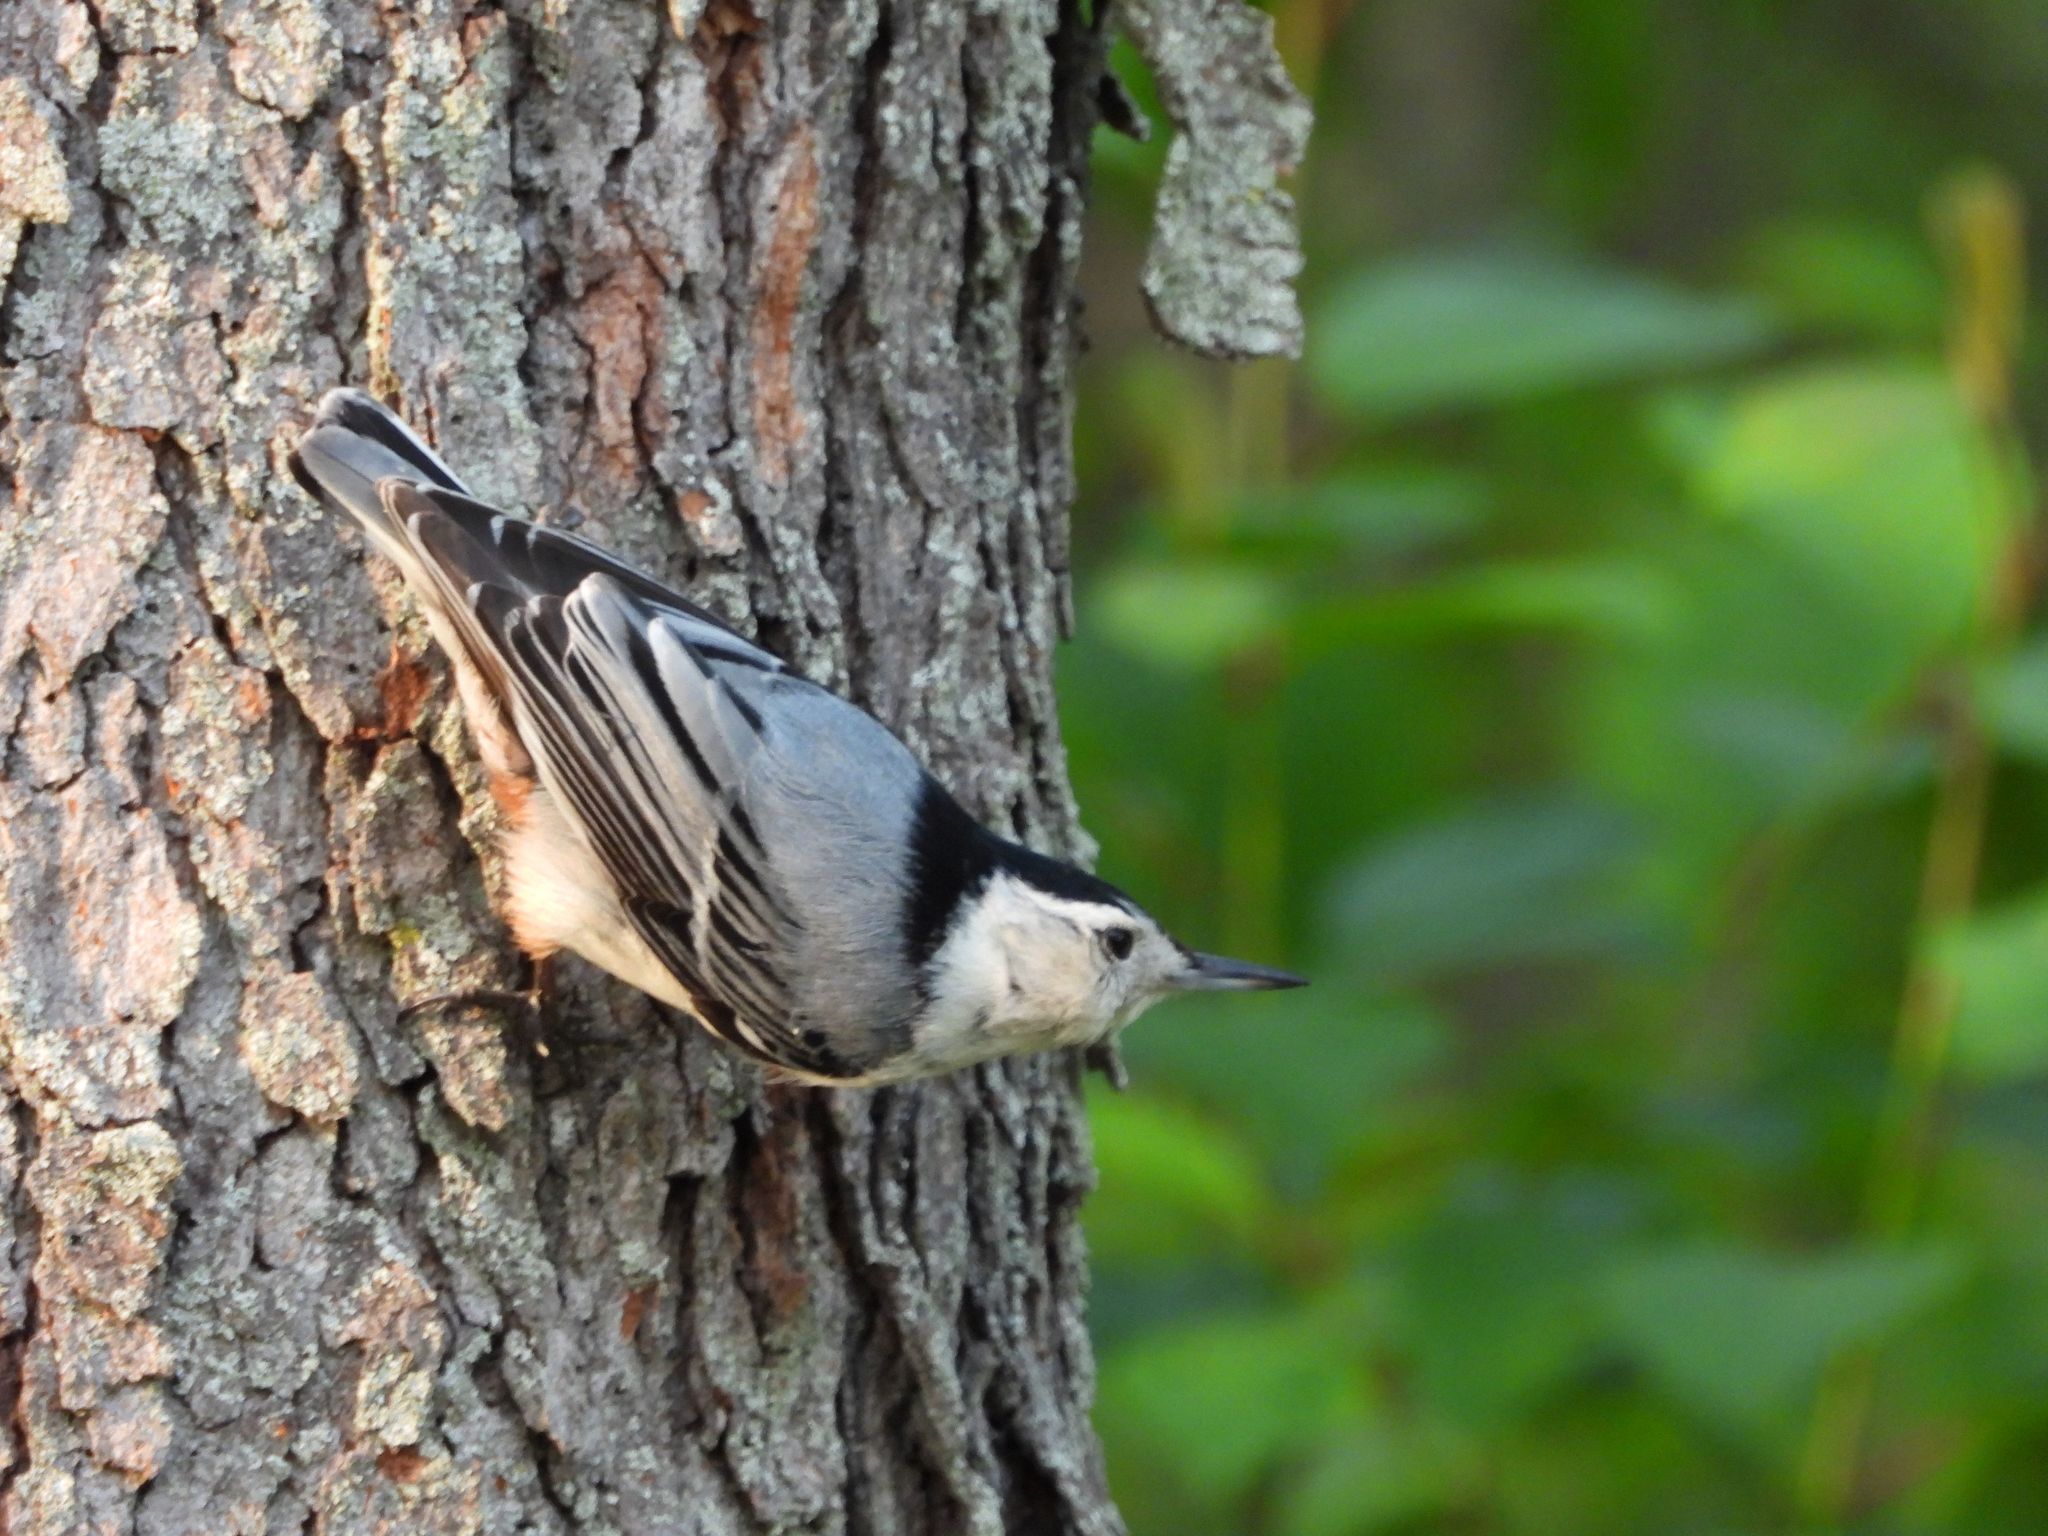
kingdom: Animalia
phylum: Chordata
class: Aves
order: Passeriformes
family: Sittidae
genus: Sitta
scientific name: Sitta carolinensis
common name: White-breasted nuthatch
